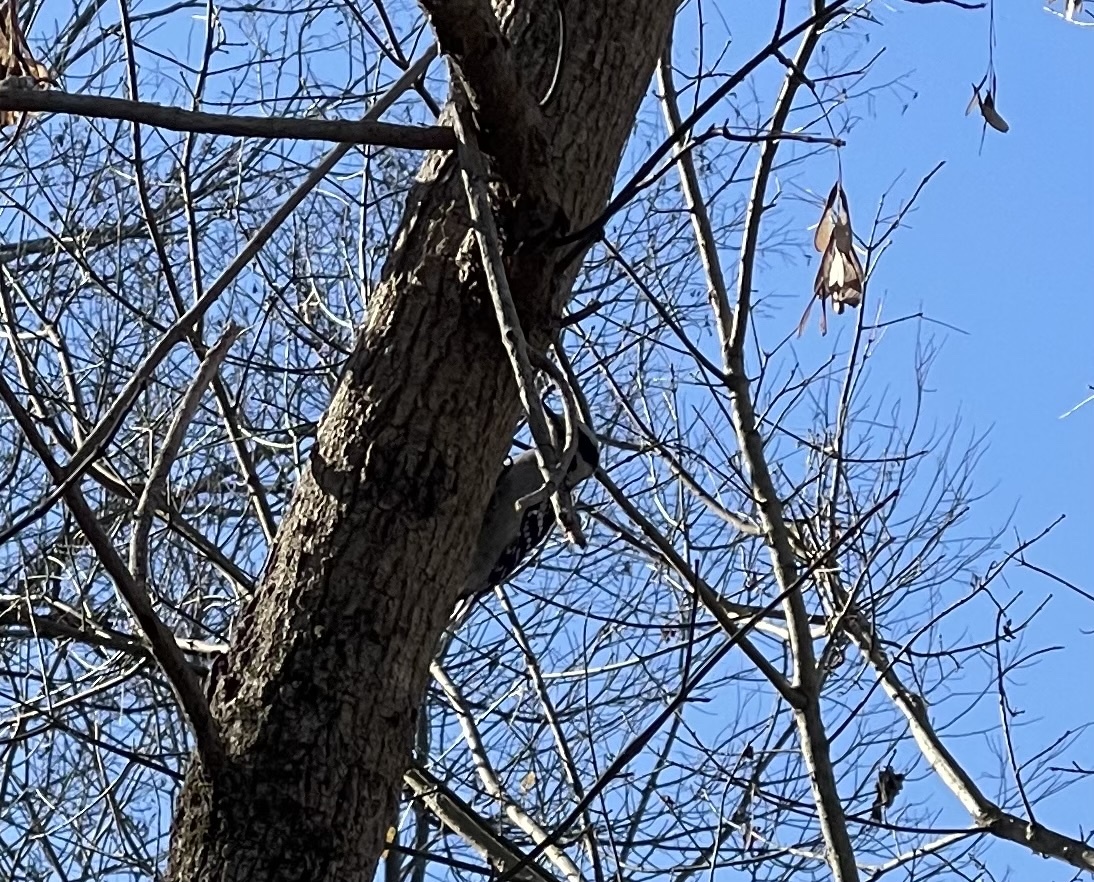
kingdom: Animalia
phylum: Chordata
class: Aves
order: Piciformes
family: Picidae
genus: Dryobates
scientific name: Dryobates pubescens
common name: Downy woodpecker
